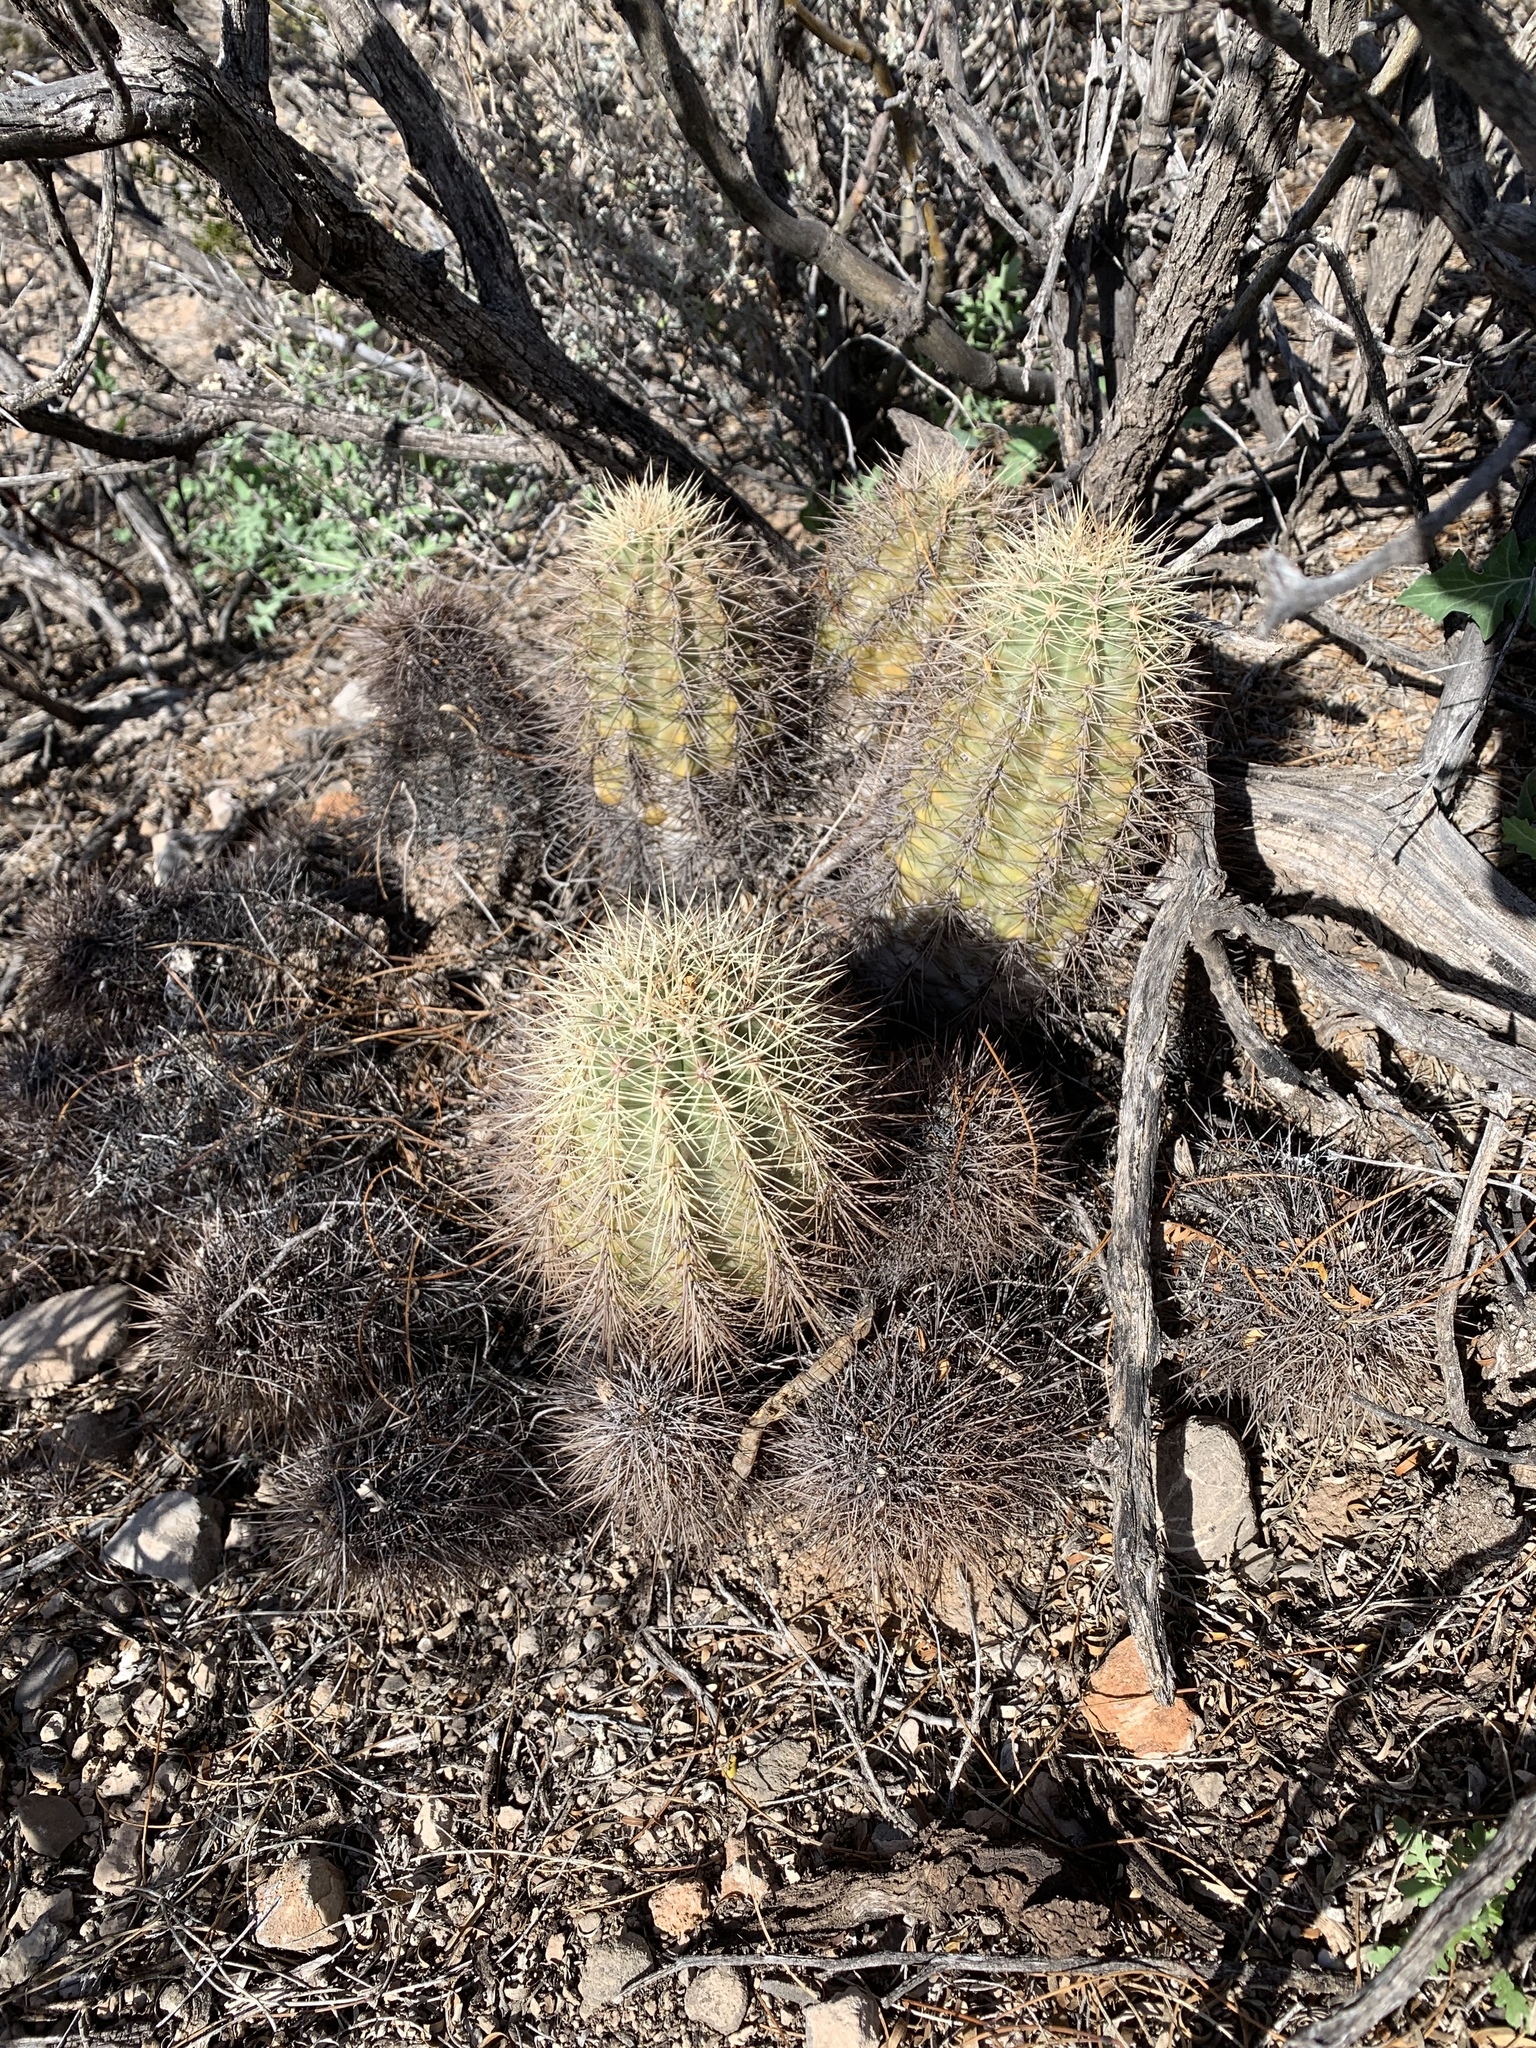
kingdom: Plantae
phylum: Tracheophyta
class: Magnoliopsida
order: Caryophyllales
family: Cactaceae
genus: Echinocereus
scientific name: Echinocereus coccineus
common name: Scarlet hedgehog cactus
